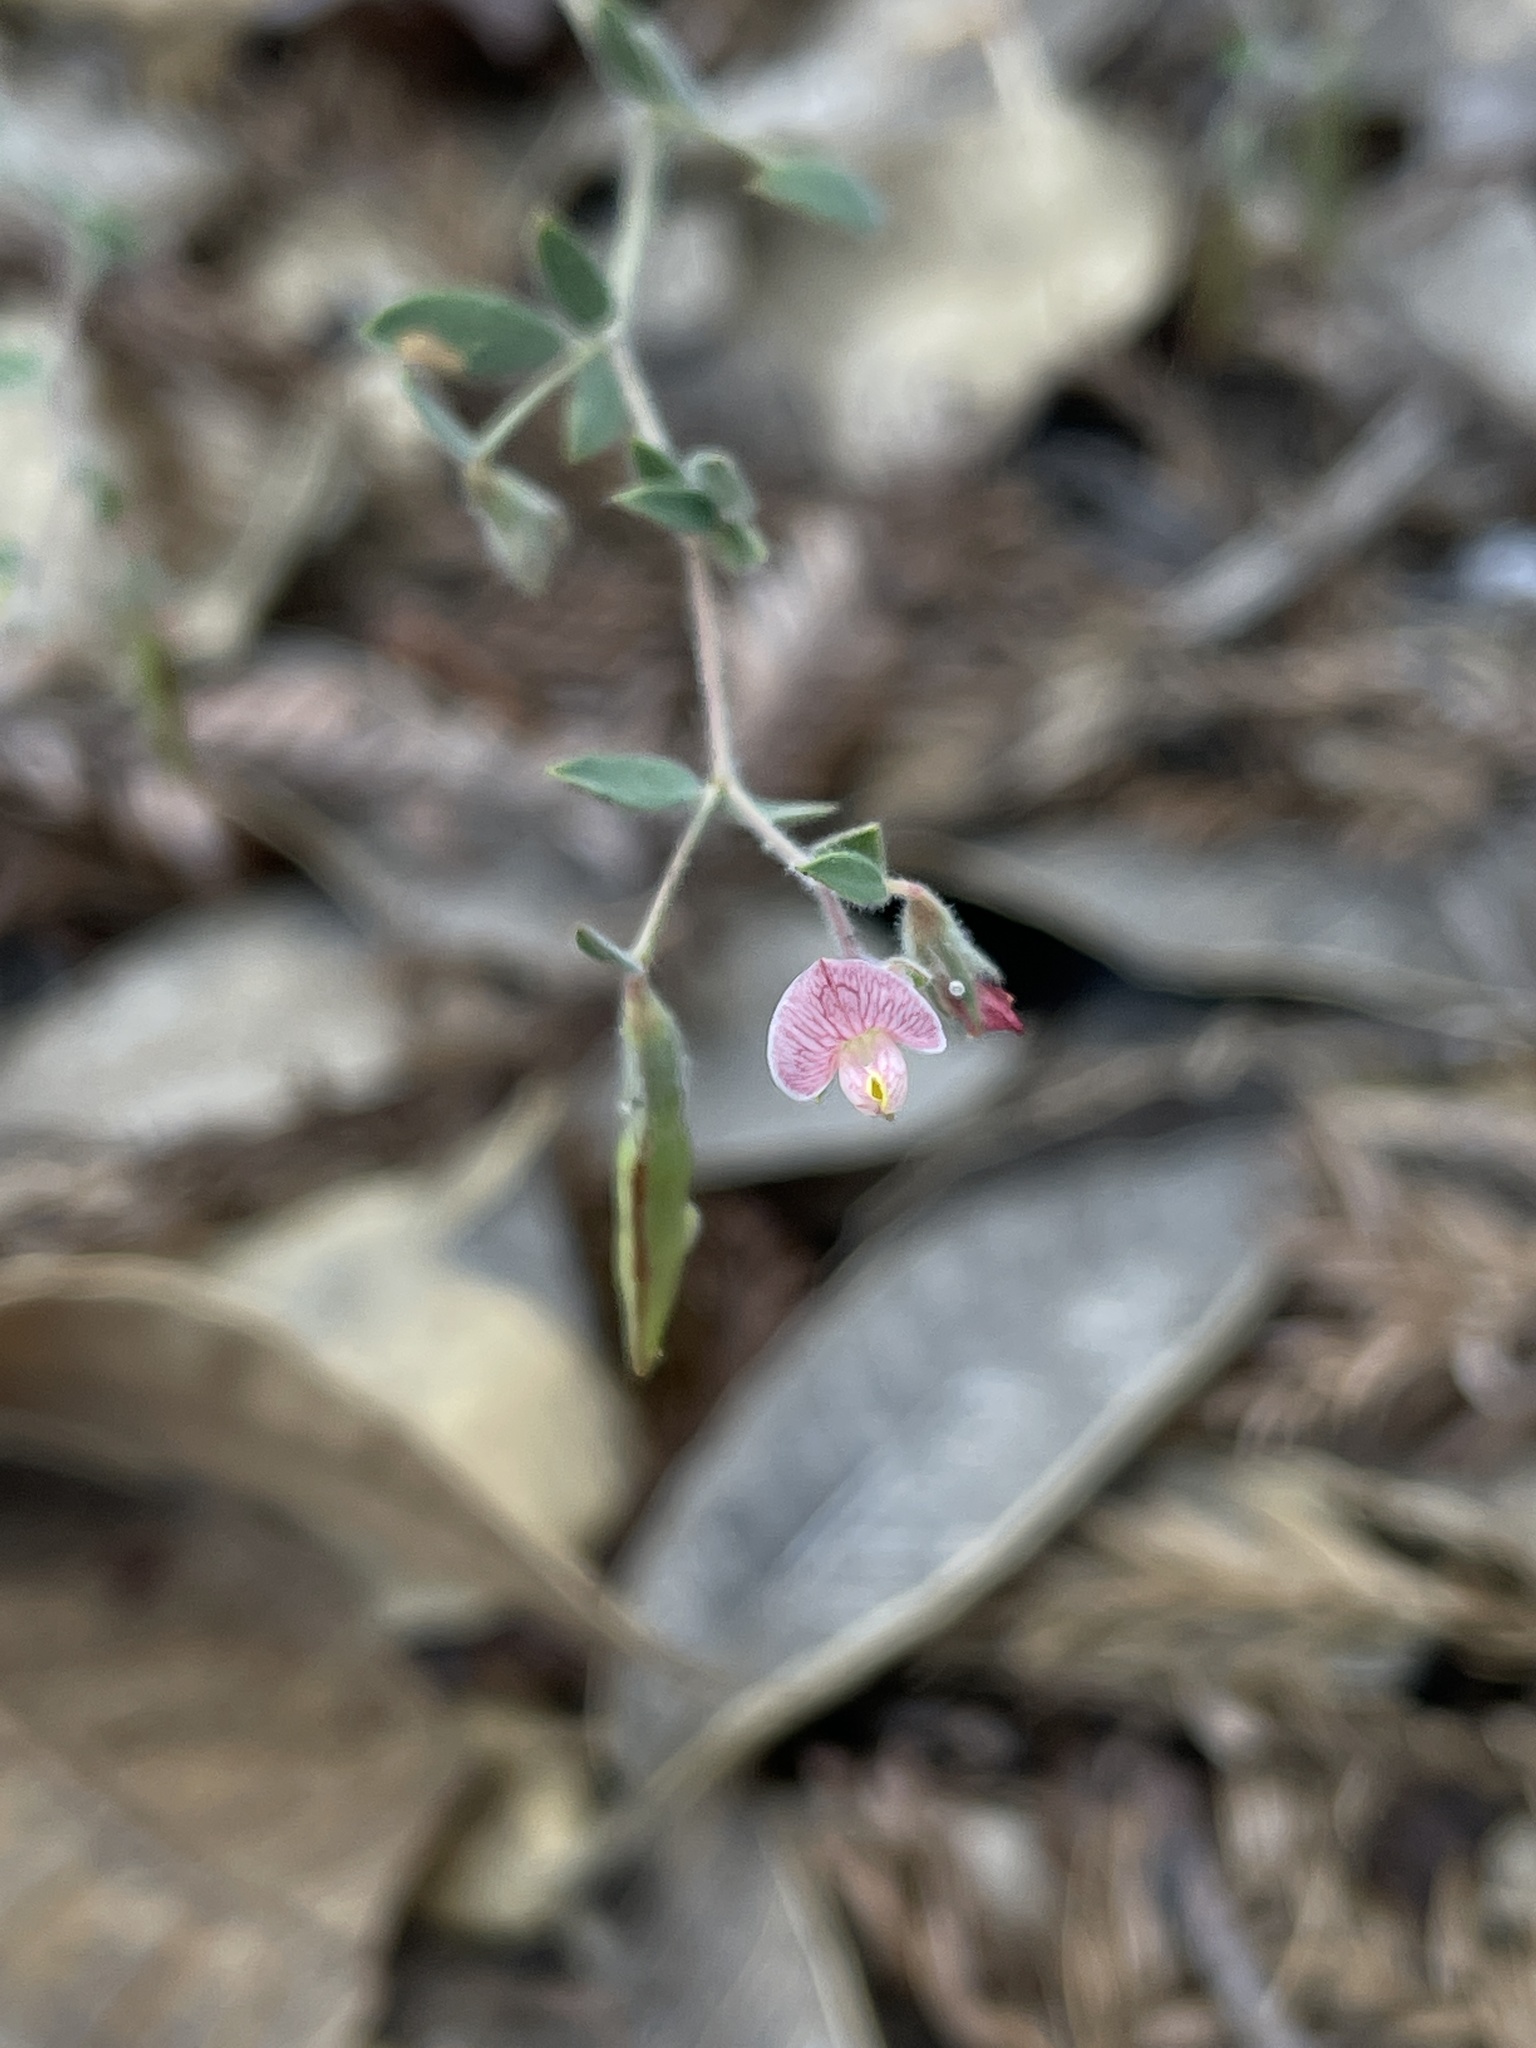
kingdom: Plantae
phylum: Tracheophyta
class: Magnoliopsida
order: Fabales
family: Fabaceae
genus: Acmispon
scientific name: Acmispon americanus
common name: American bird's-foot trefoil
